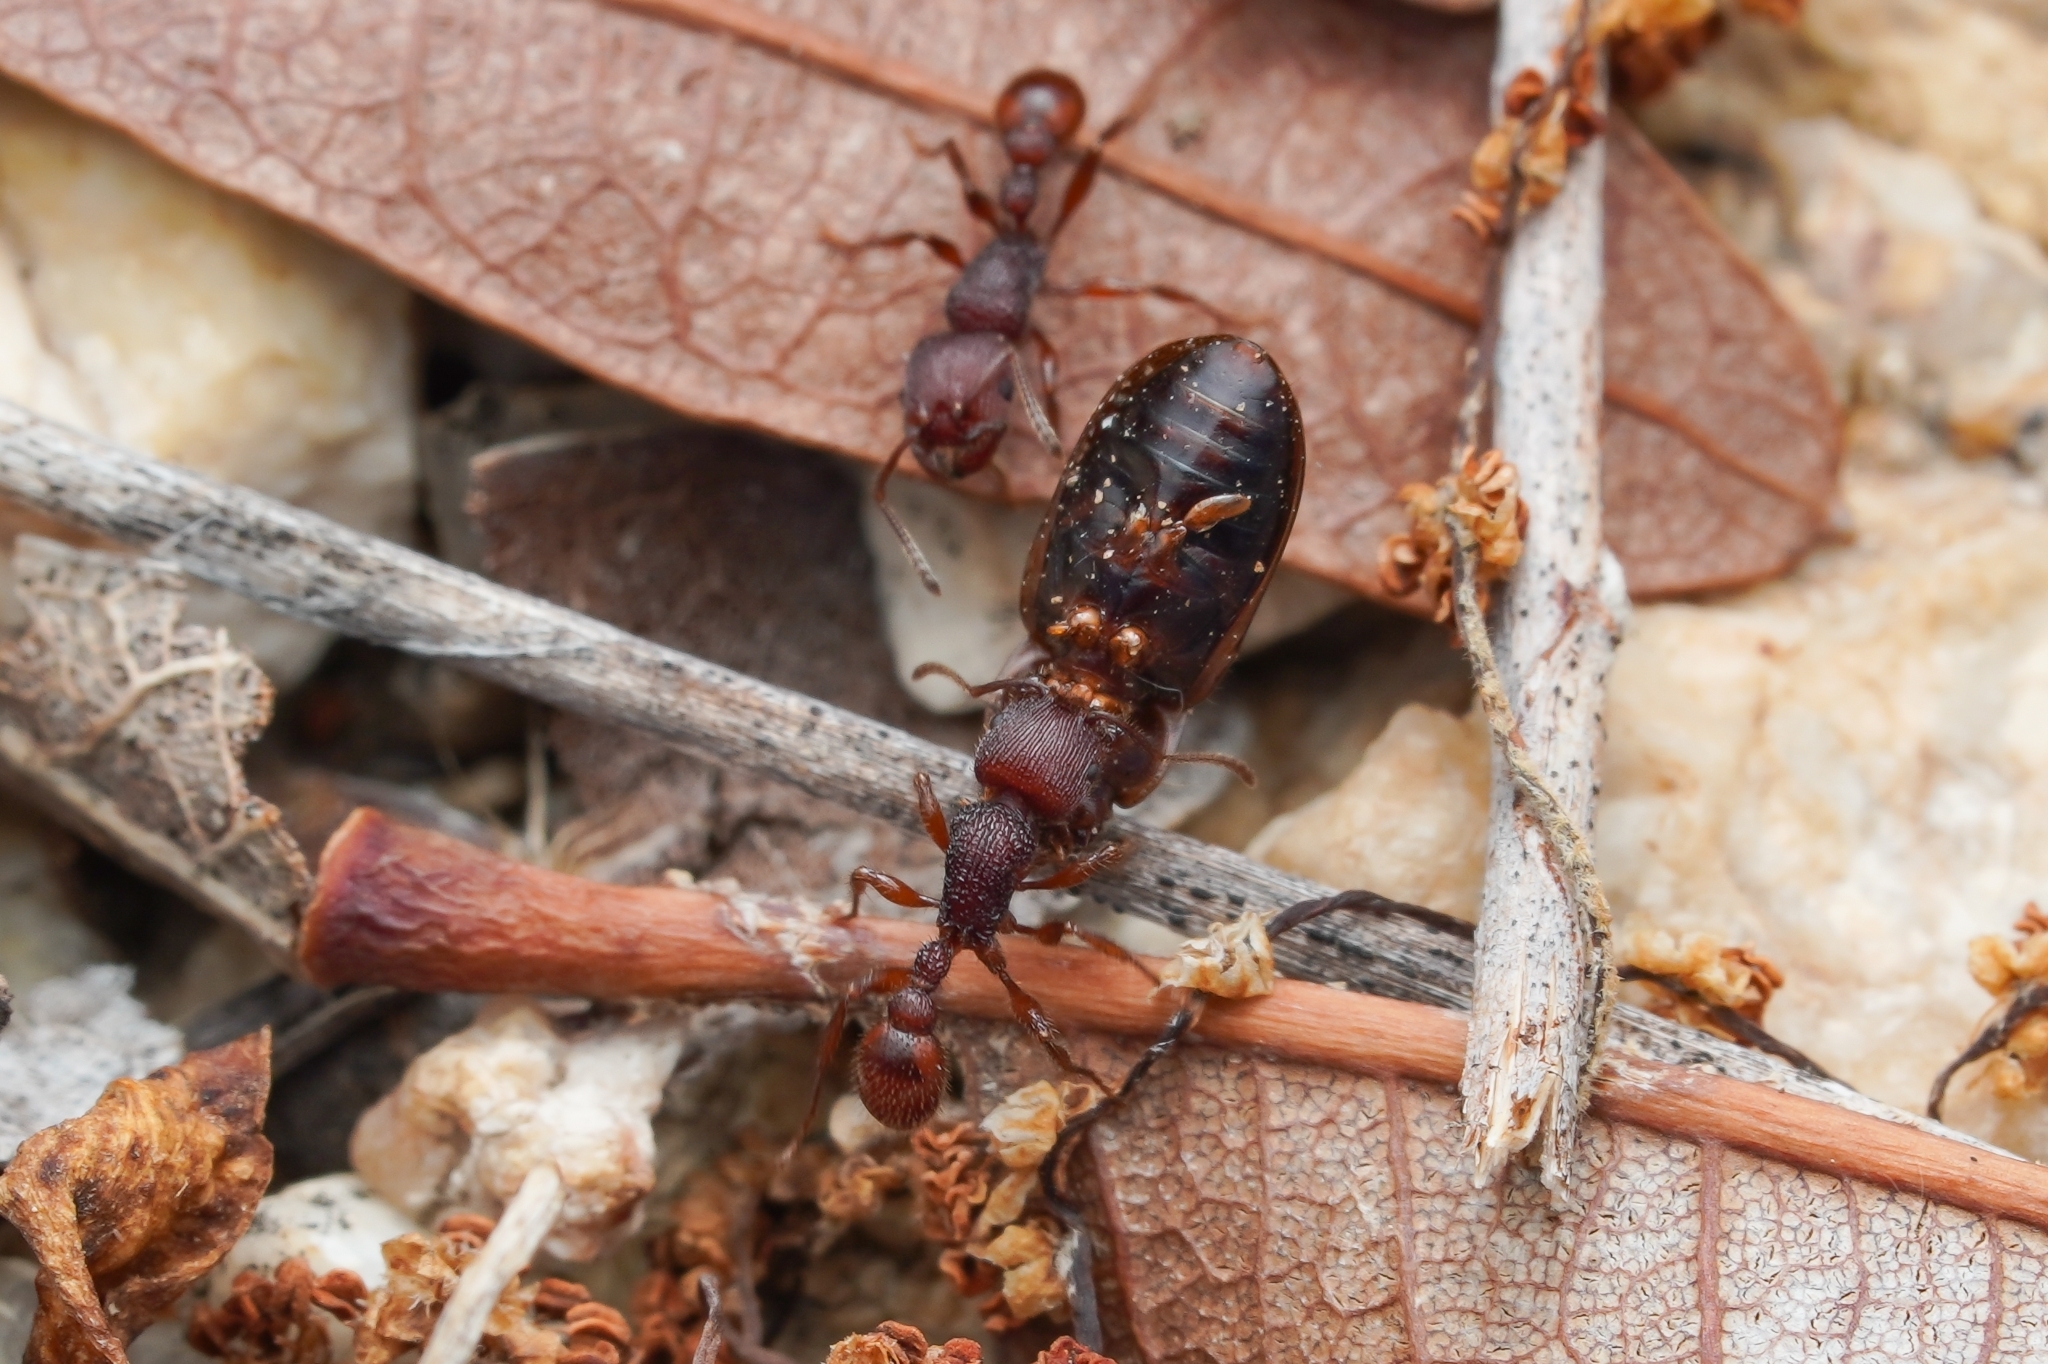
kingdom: Animalia
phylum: Arthropoda
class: Insecta
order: Hymenoptera
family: Formicidae
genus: Pogonomyrmex
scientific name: Pogonomyrmex imberbiculus
